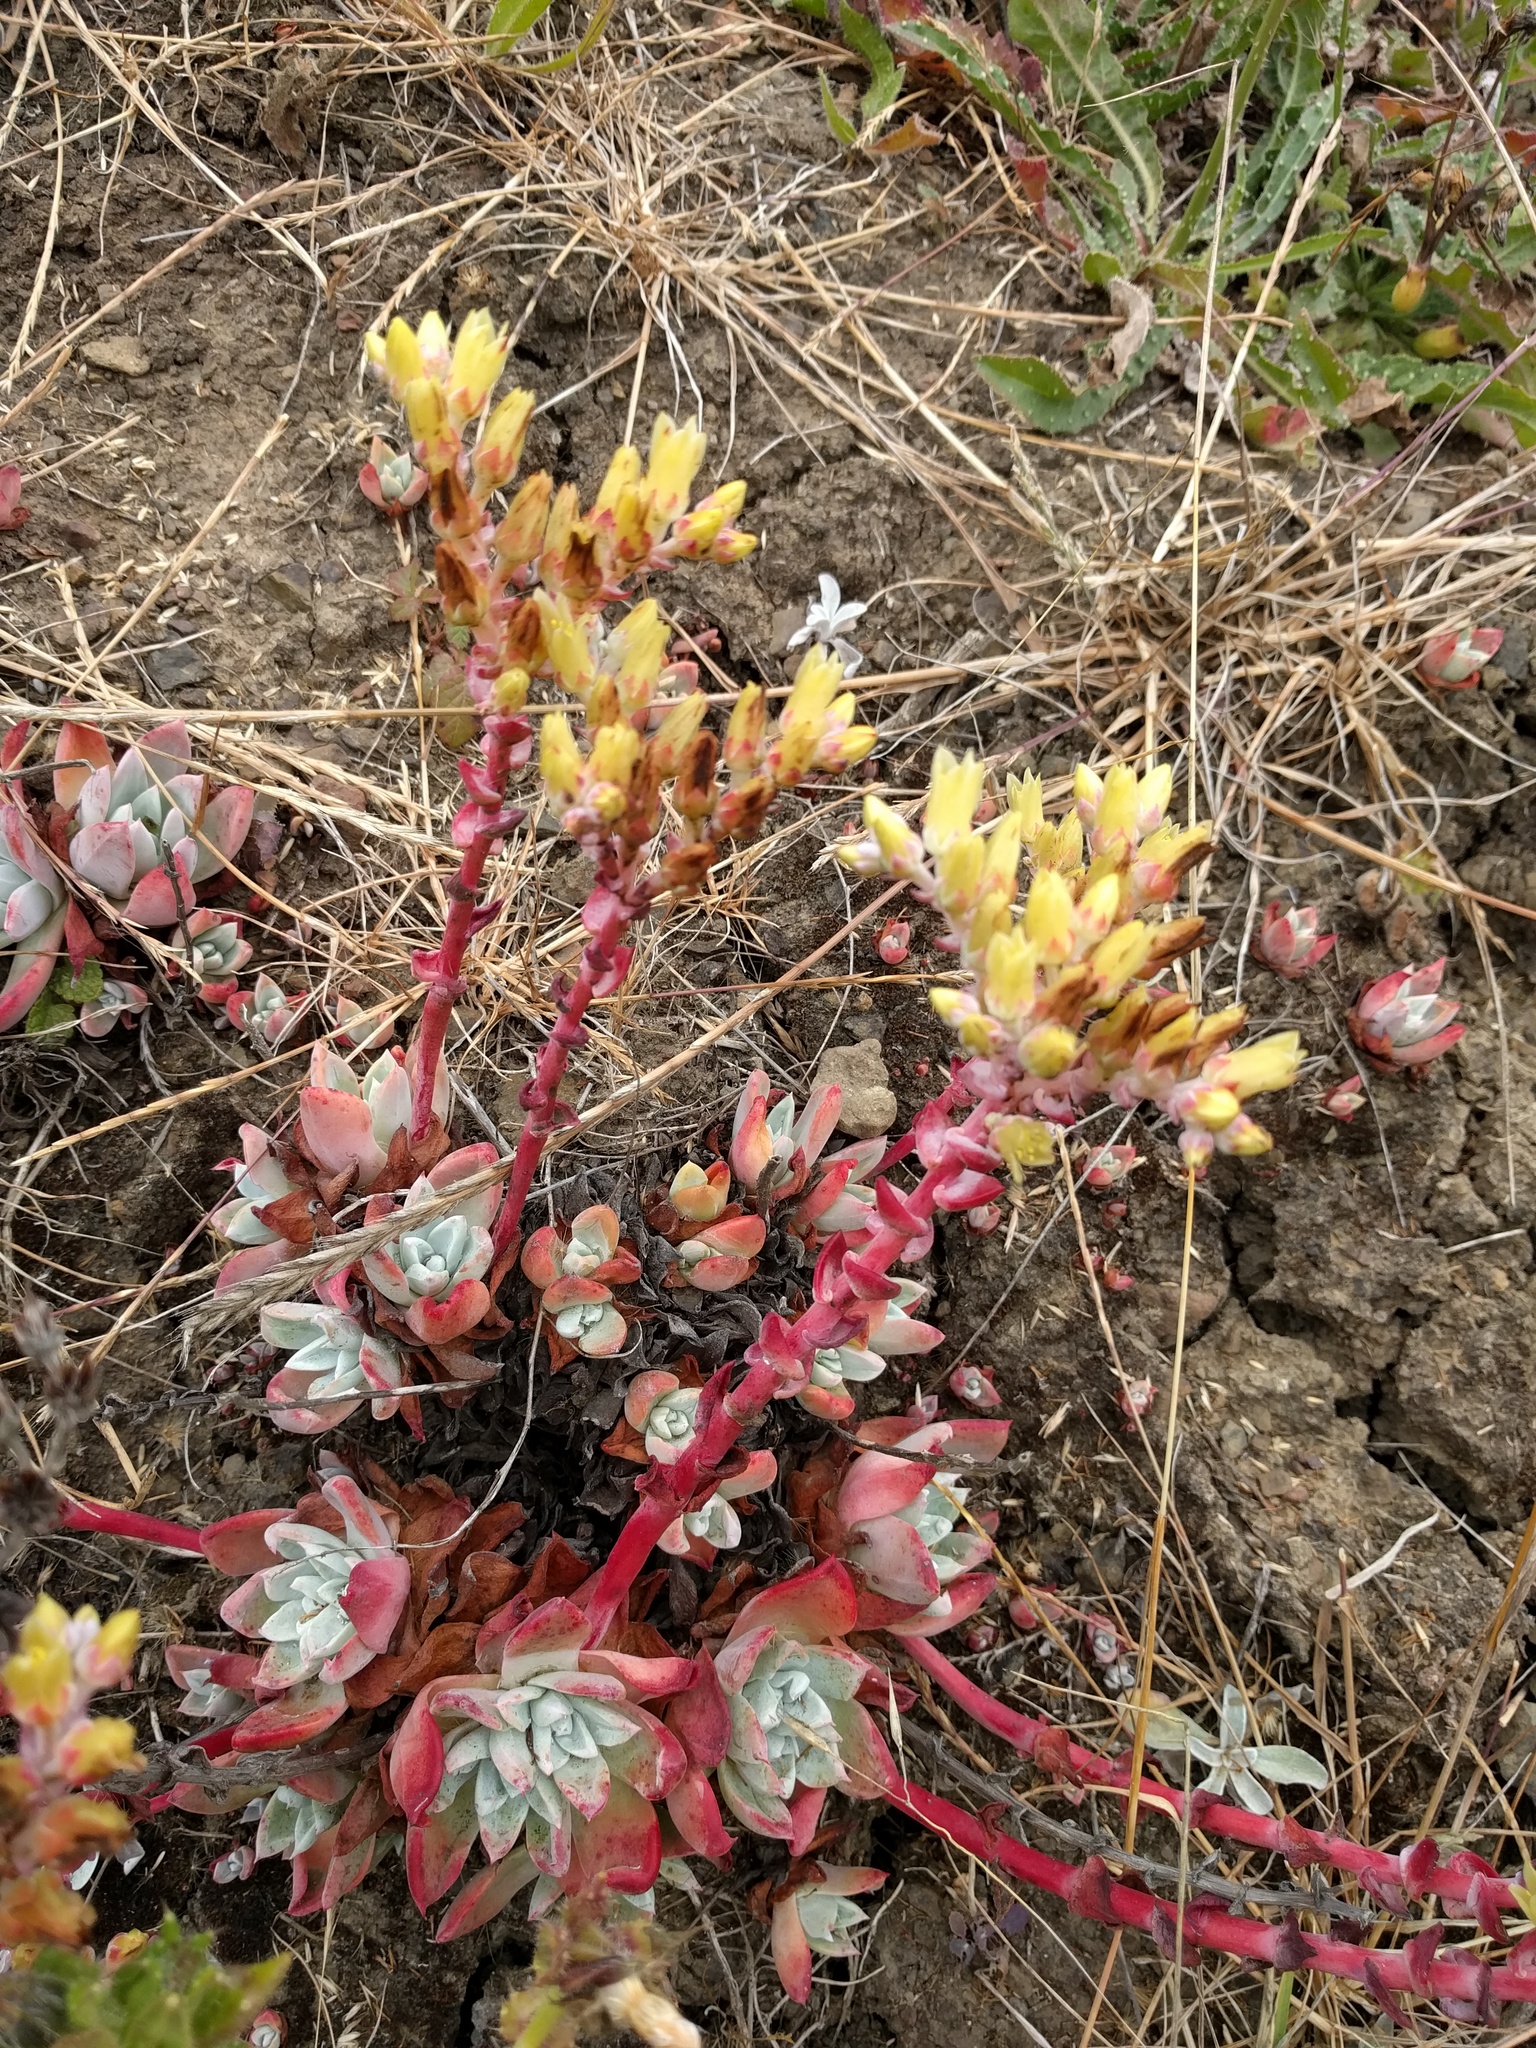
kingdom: Plantae
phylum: Tracheophyta
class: Magnoliopsida
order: Saxifragales
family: Crassulaceae
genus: Dudleya
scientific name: Dudleya farinosa
